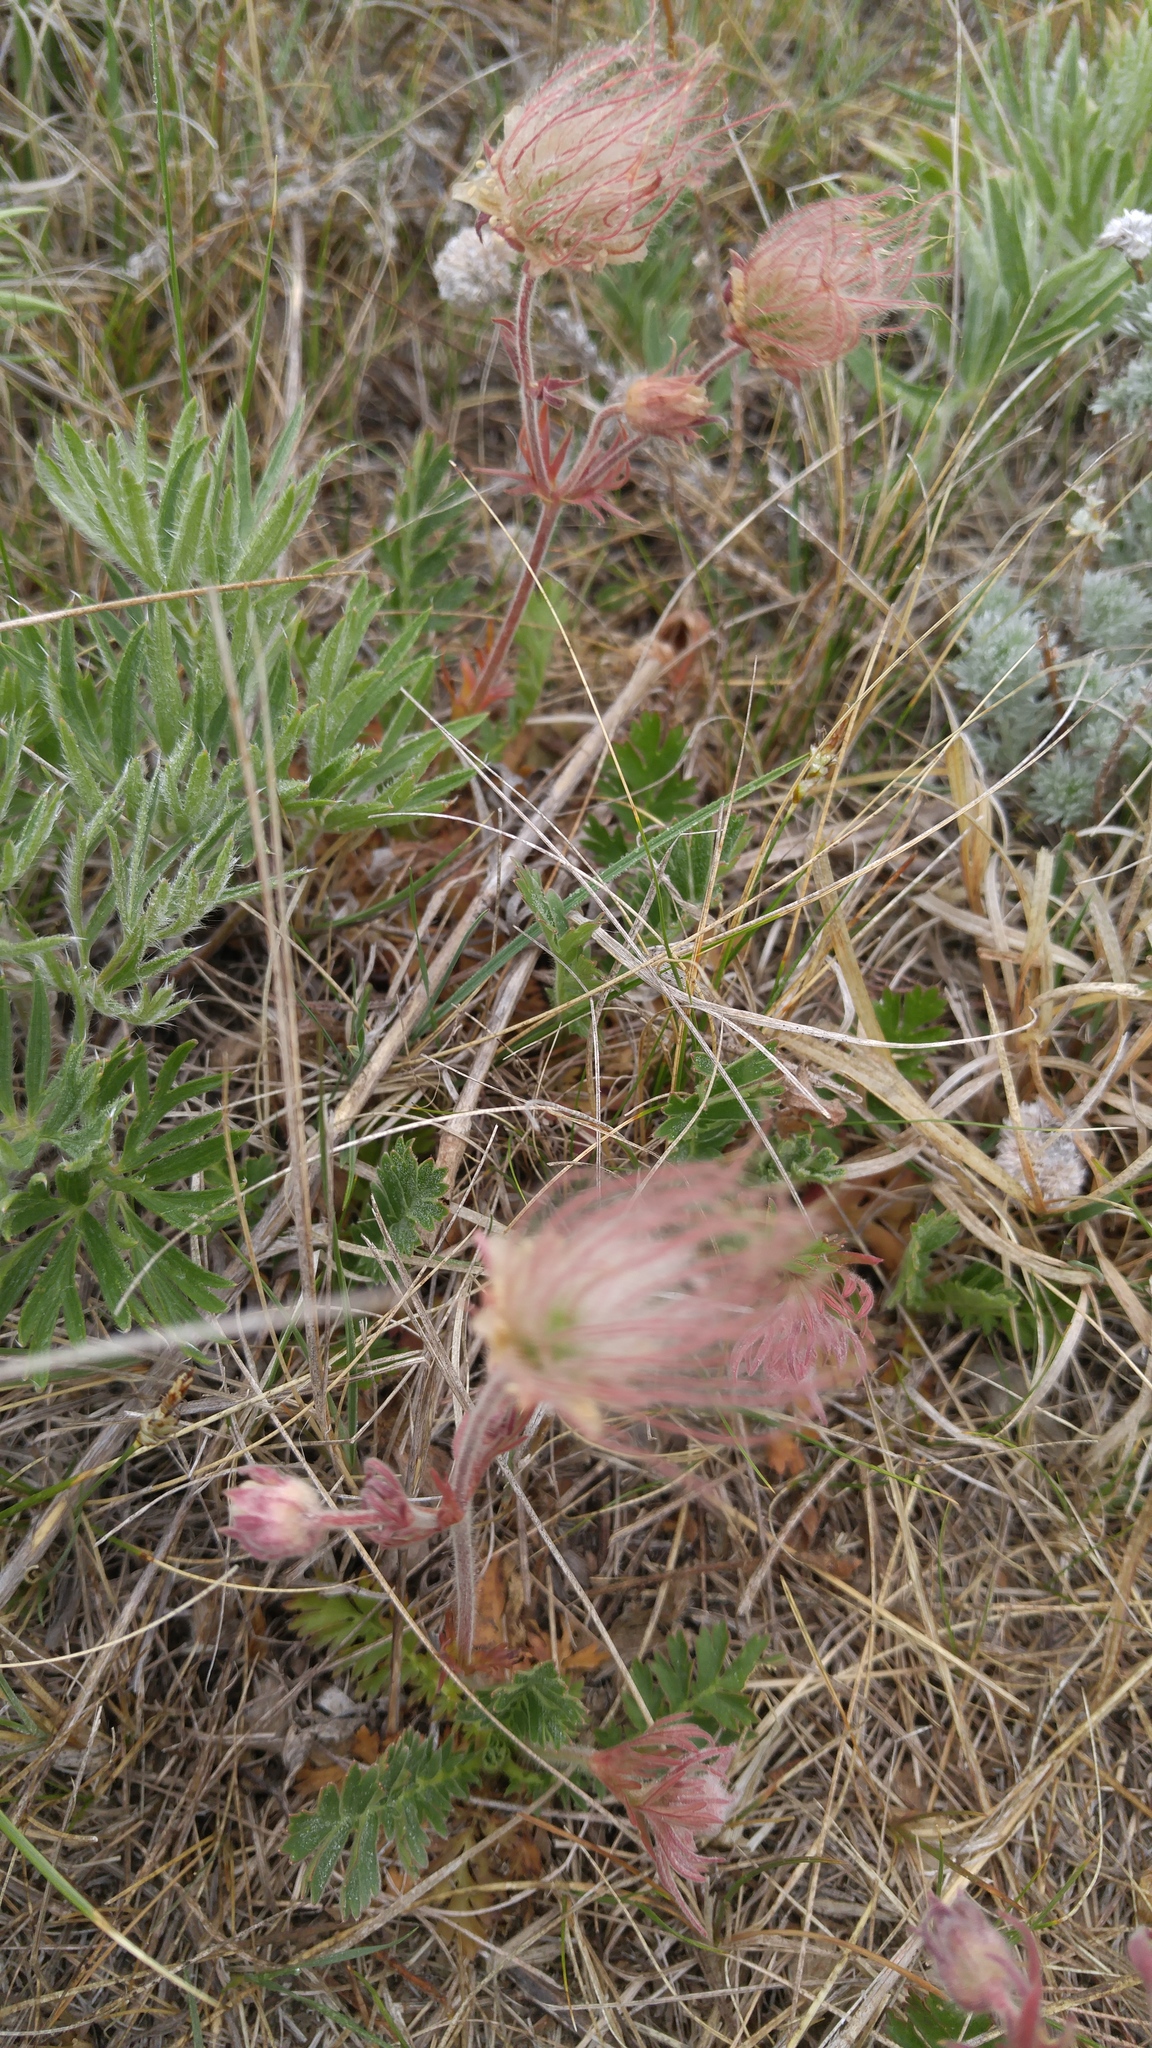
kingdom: Plantae
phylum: Tracheophyta
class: Magnoliopsida
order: Rosales
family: Rosaceae
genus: Geum
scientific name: Geum triflorum
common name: Old man's whiskers
